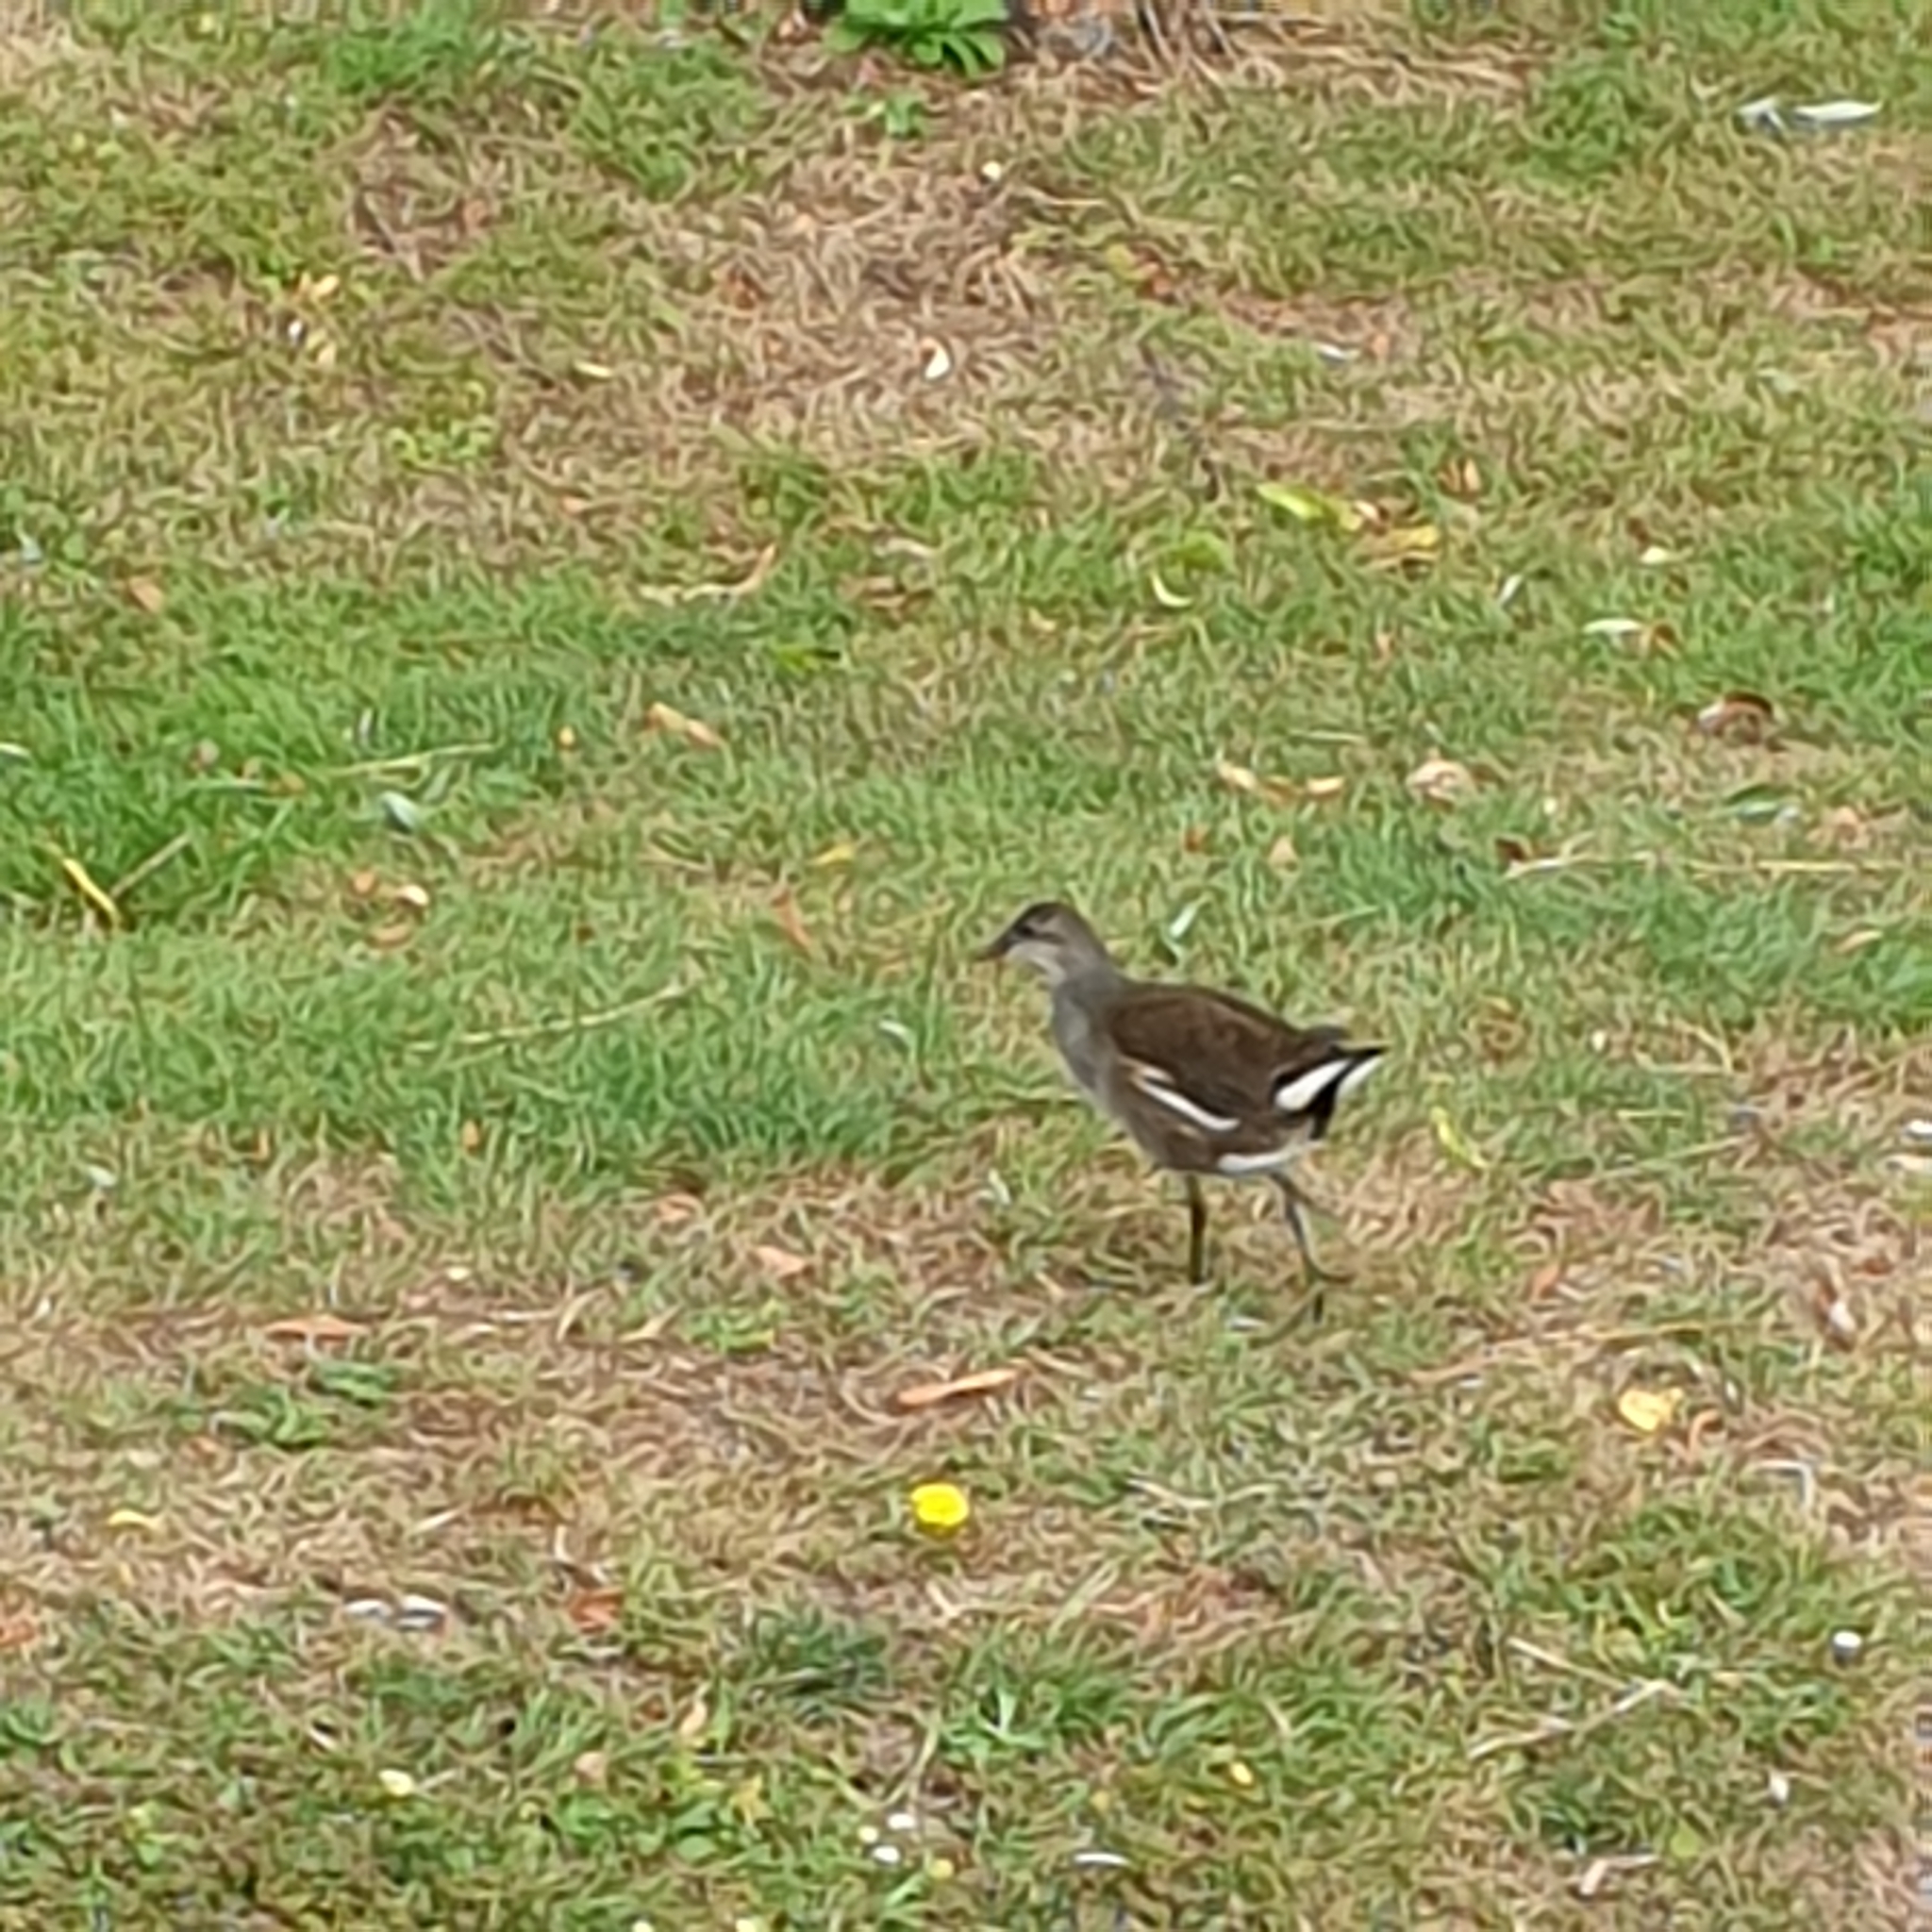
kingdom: Animalia
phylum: Chordata
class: Aves
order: Gruiformes
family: Rallidae
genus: Gallinula
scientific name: Gallinula chloropus
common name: Common moorhen
